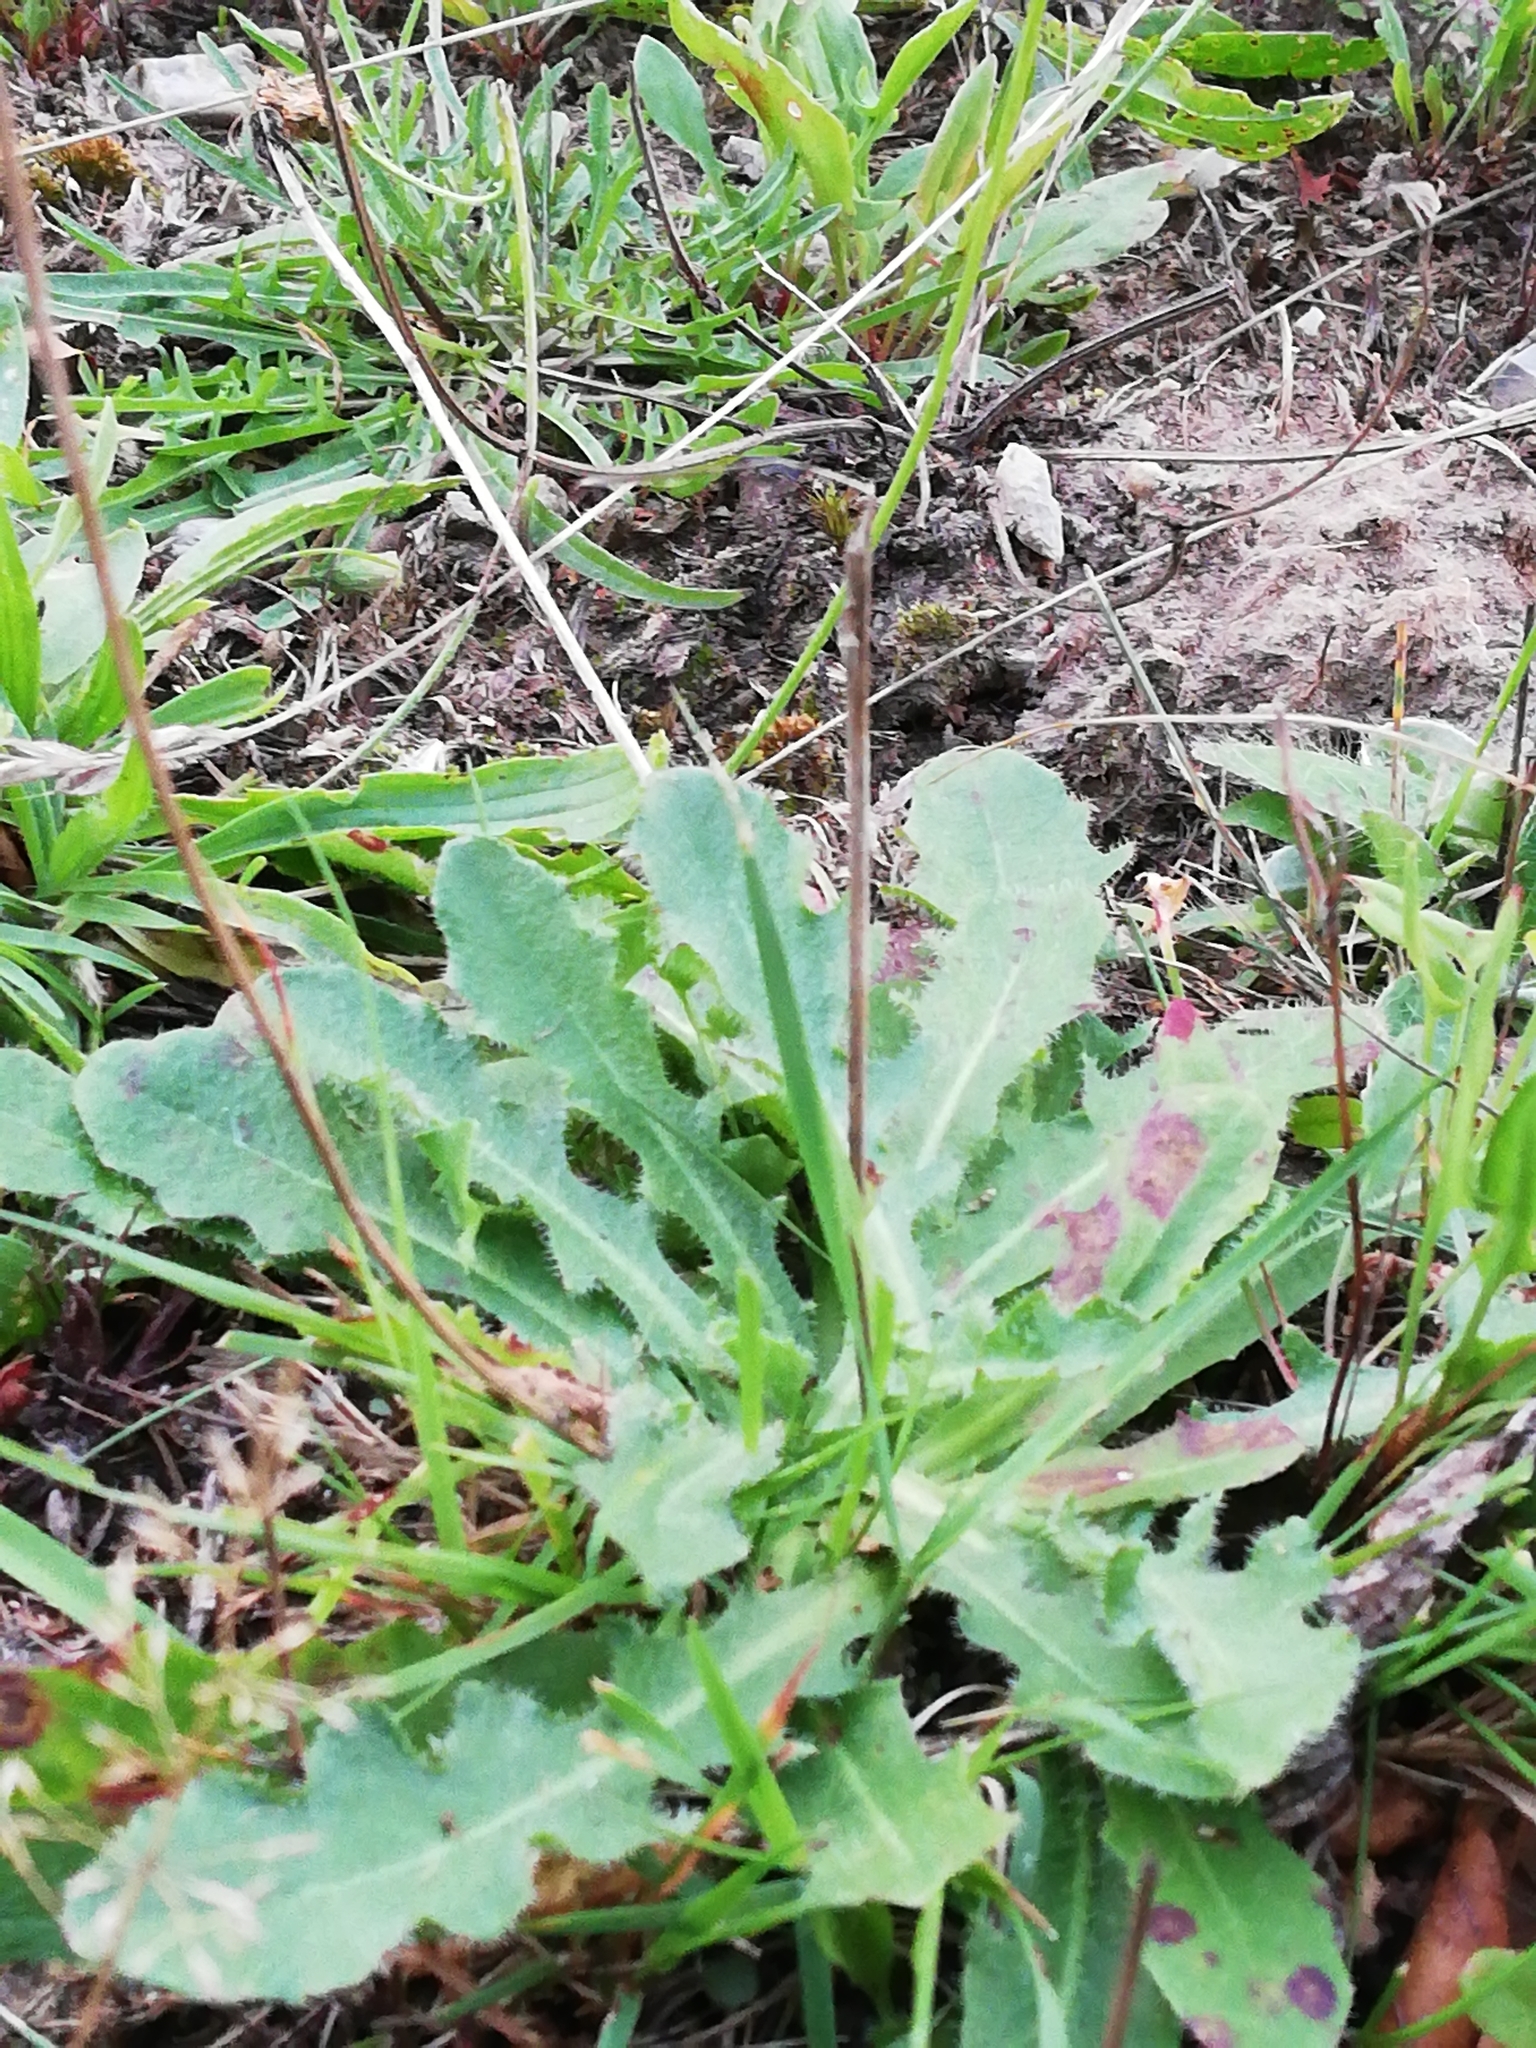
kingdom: Plantae
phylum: Tracheophyta
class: Magnoliopsida
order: Asterales
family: Asteraceae
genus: Hypochaeris
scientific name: Hypochaeris radicata
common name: Flatweed
